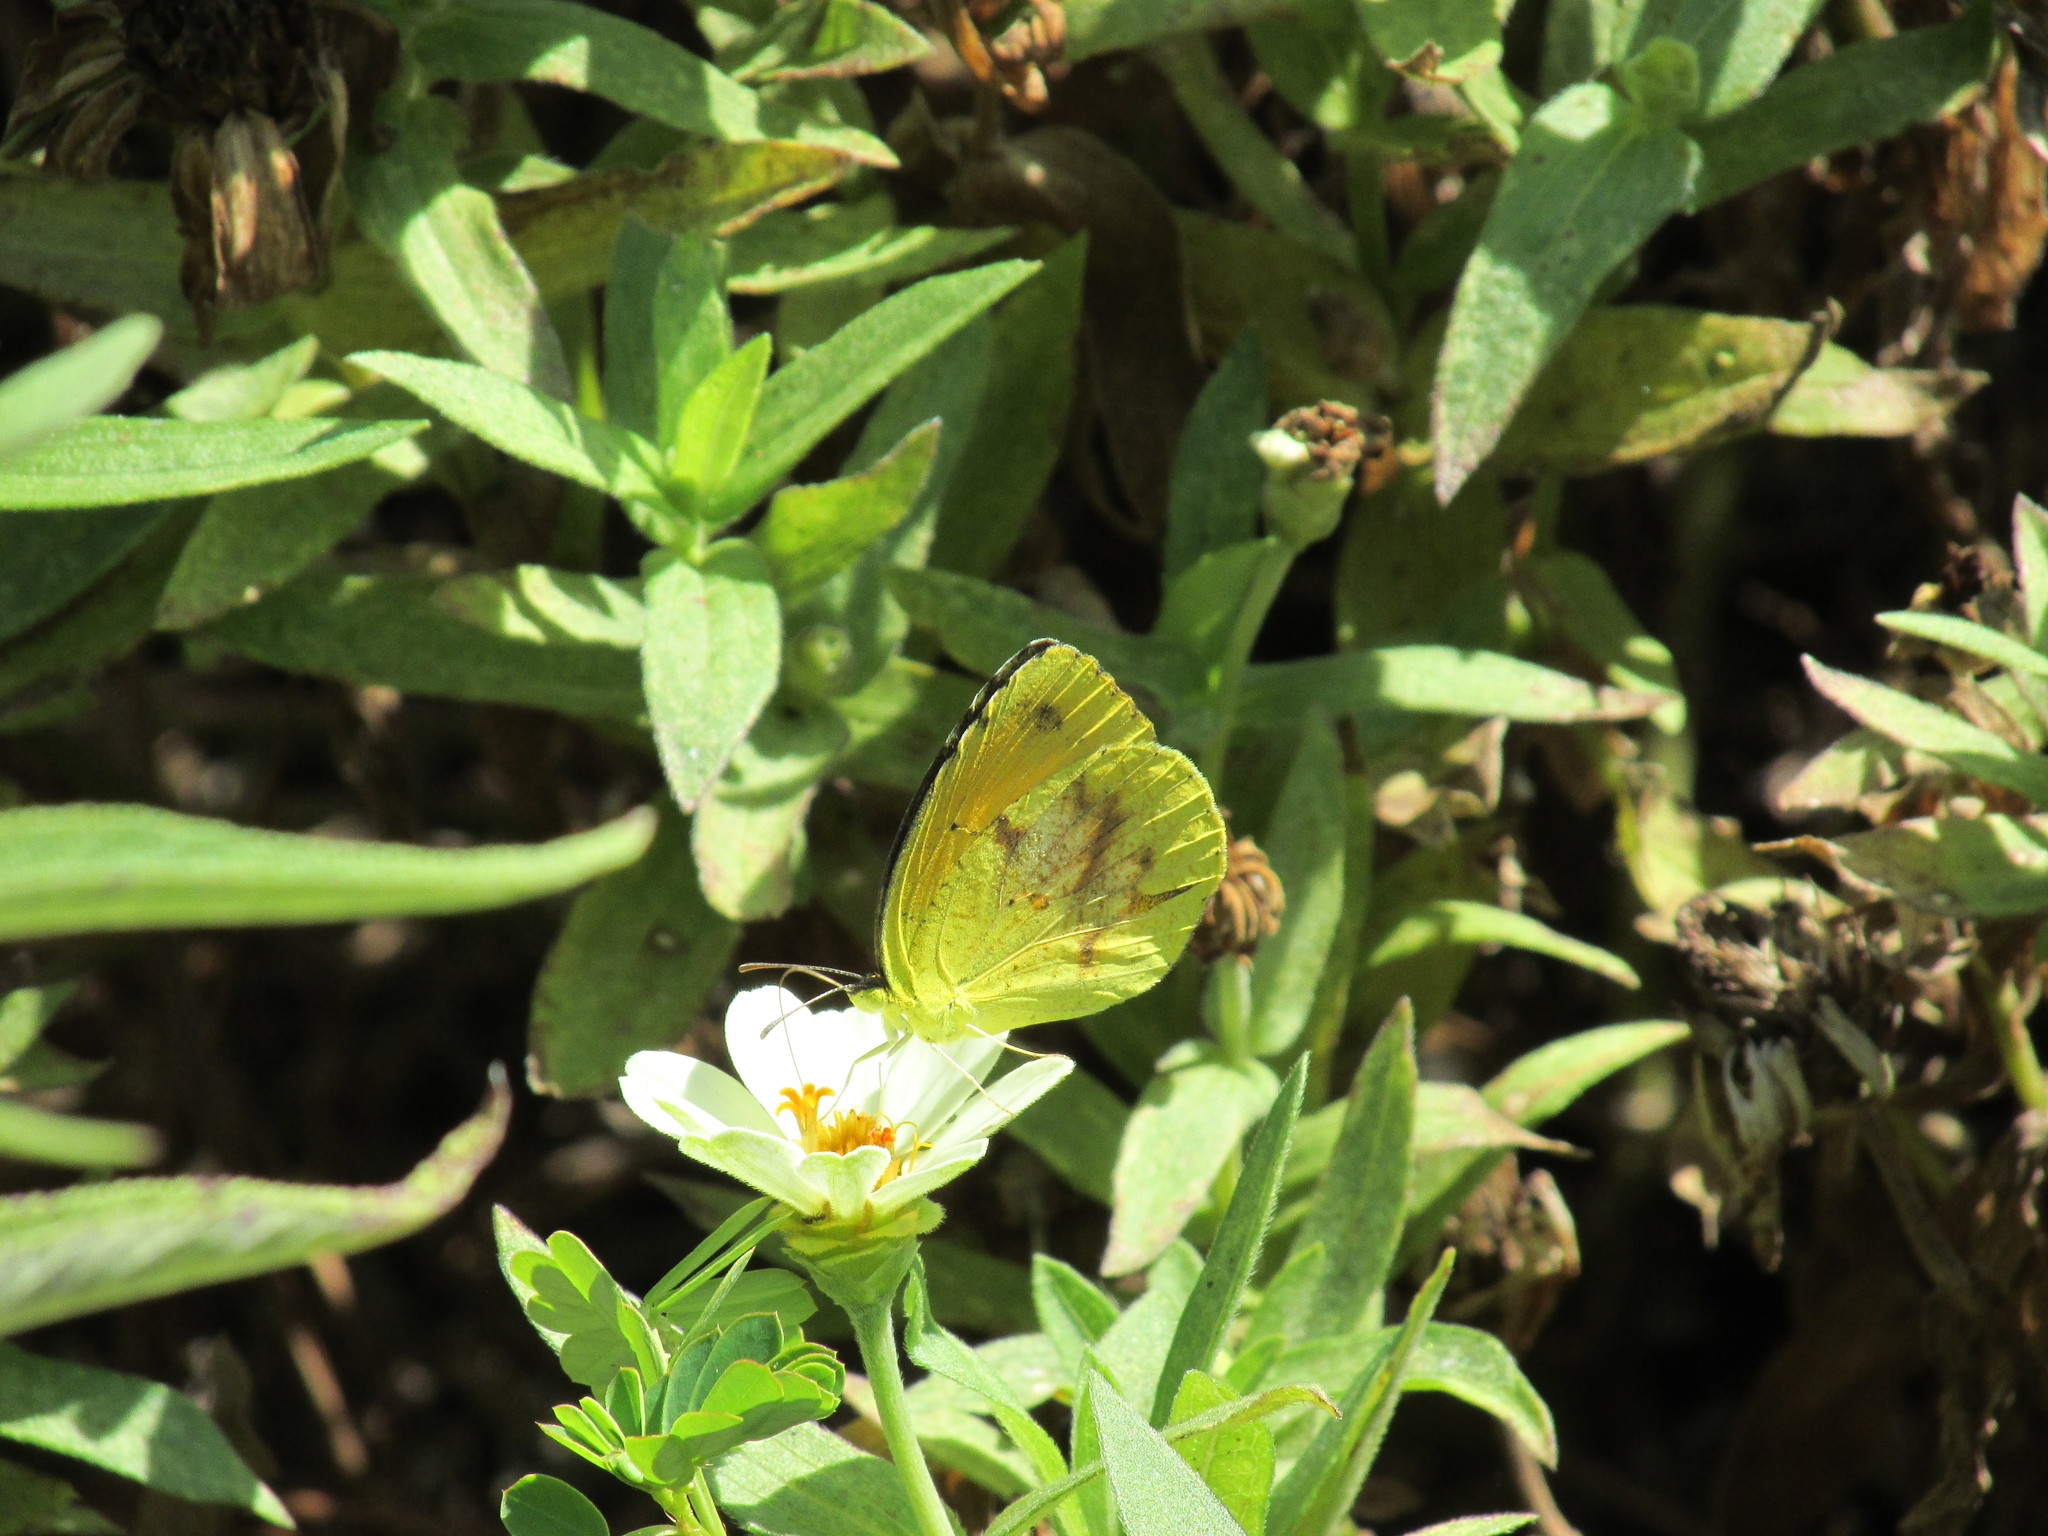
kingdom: Animalia
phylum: Arthropoda
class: Insecta
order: Lepidoptera
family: Pieridae
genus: Abaeis
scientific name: Abaeis nicippe
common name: Sleepy orange
